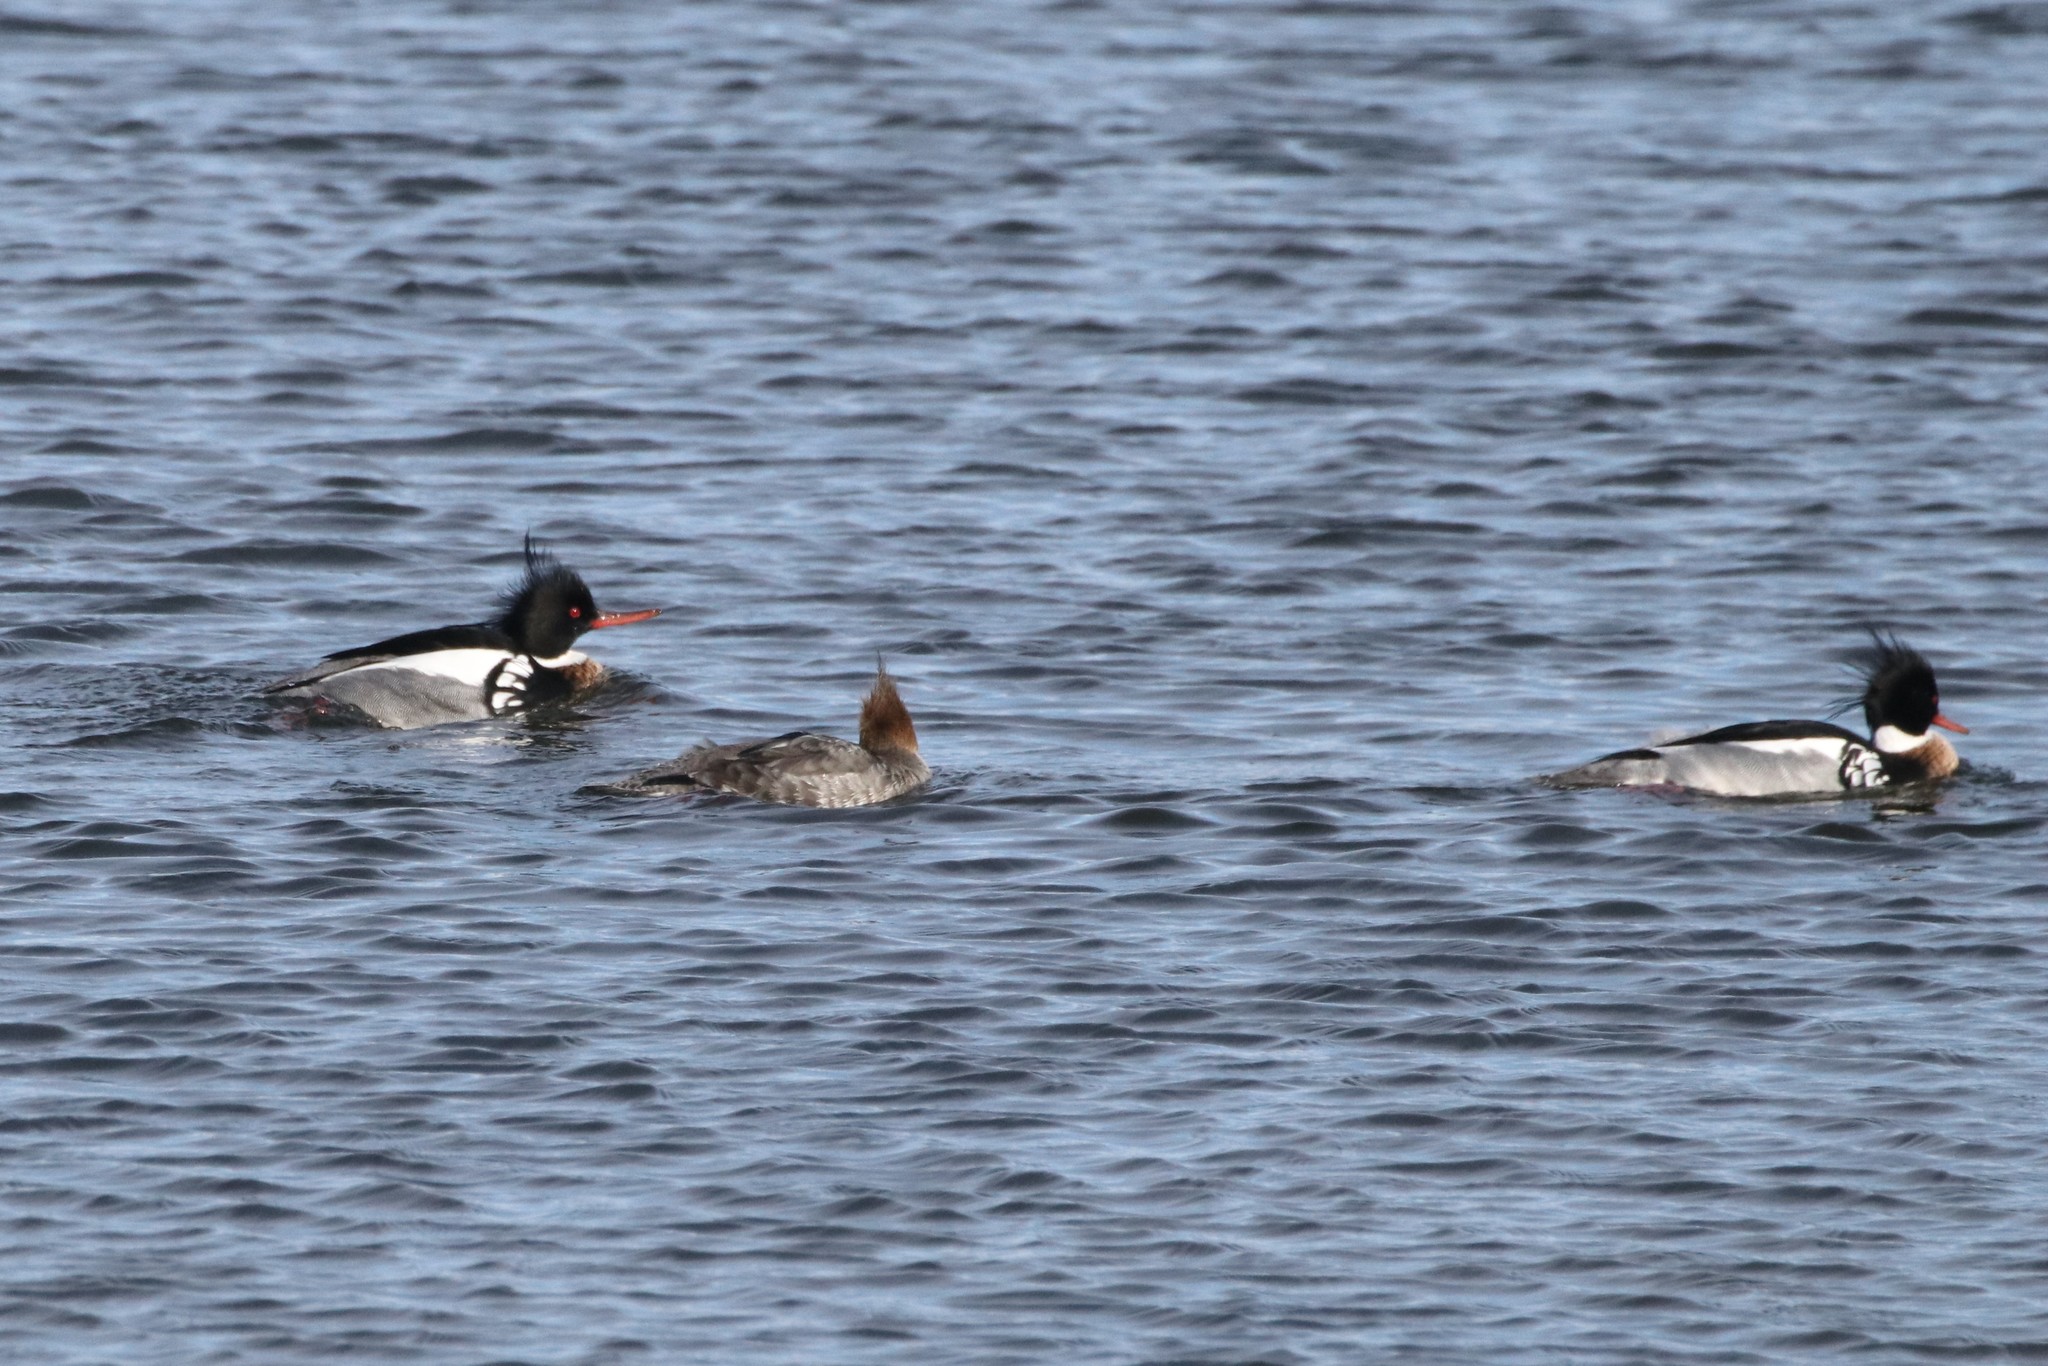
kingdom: Animalia
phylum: Chordata
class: Aves
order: Anseriformes
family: Anatidae
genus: Mergus
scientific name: Mergus serrator
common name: Red-breasted merganser
